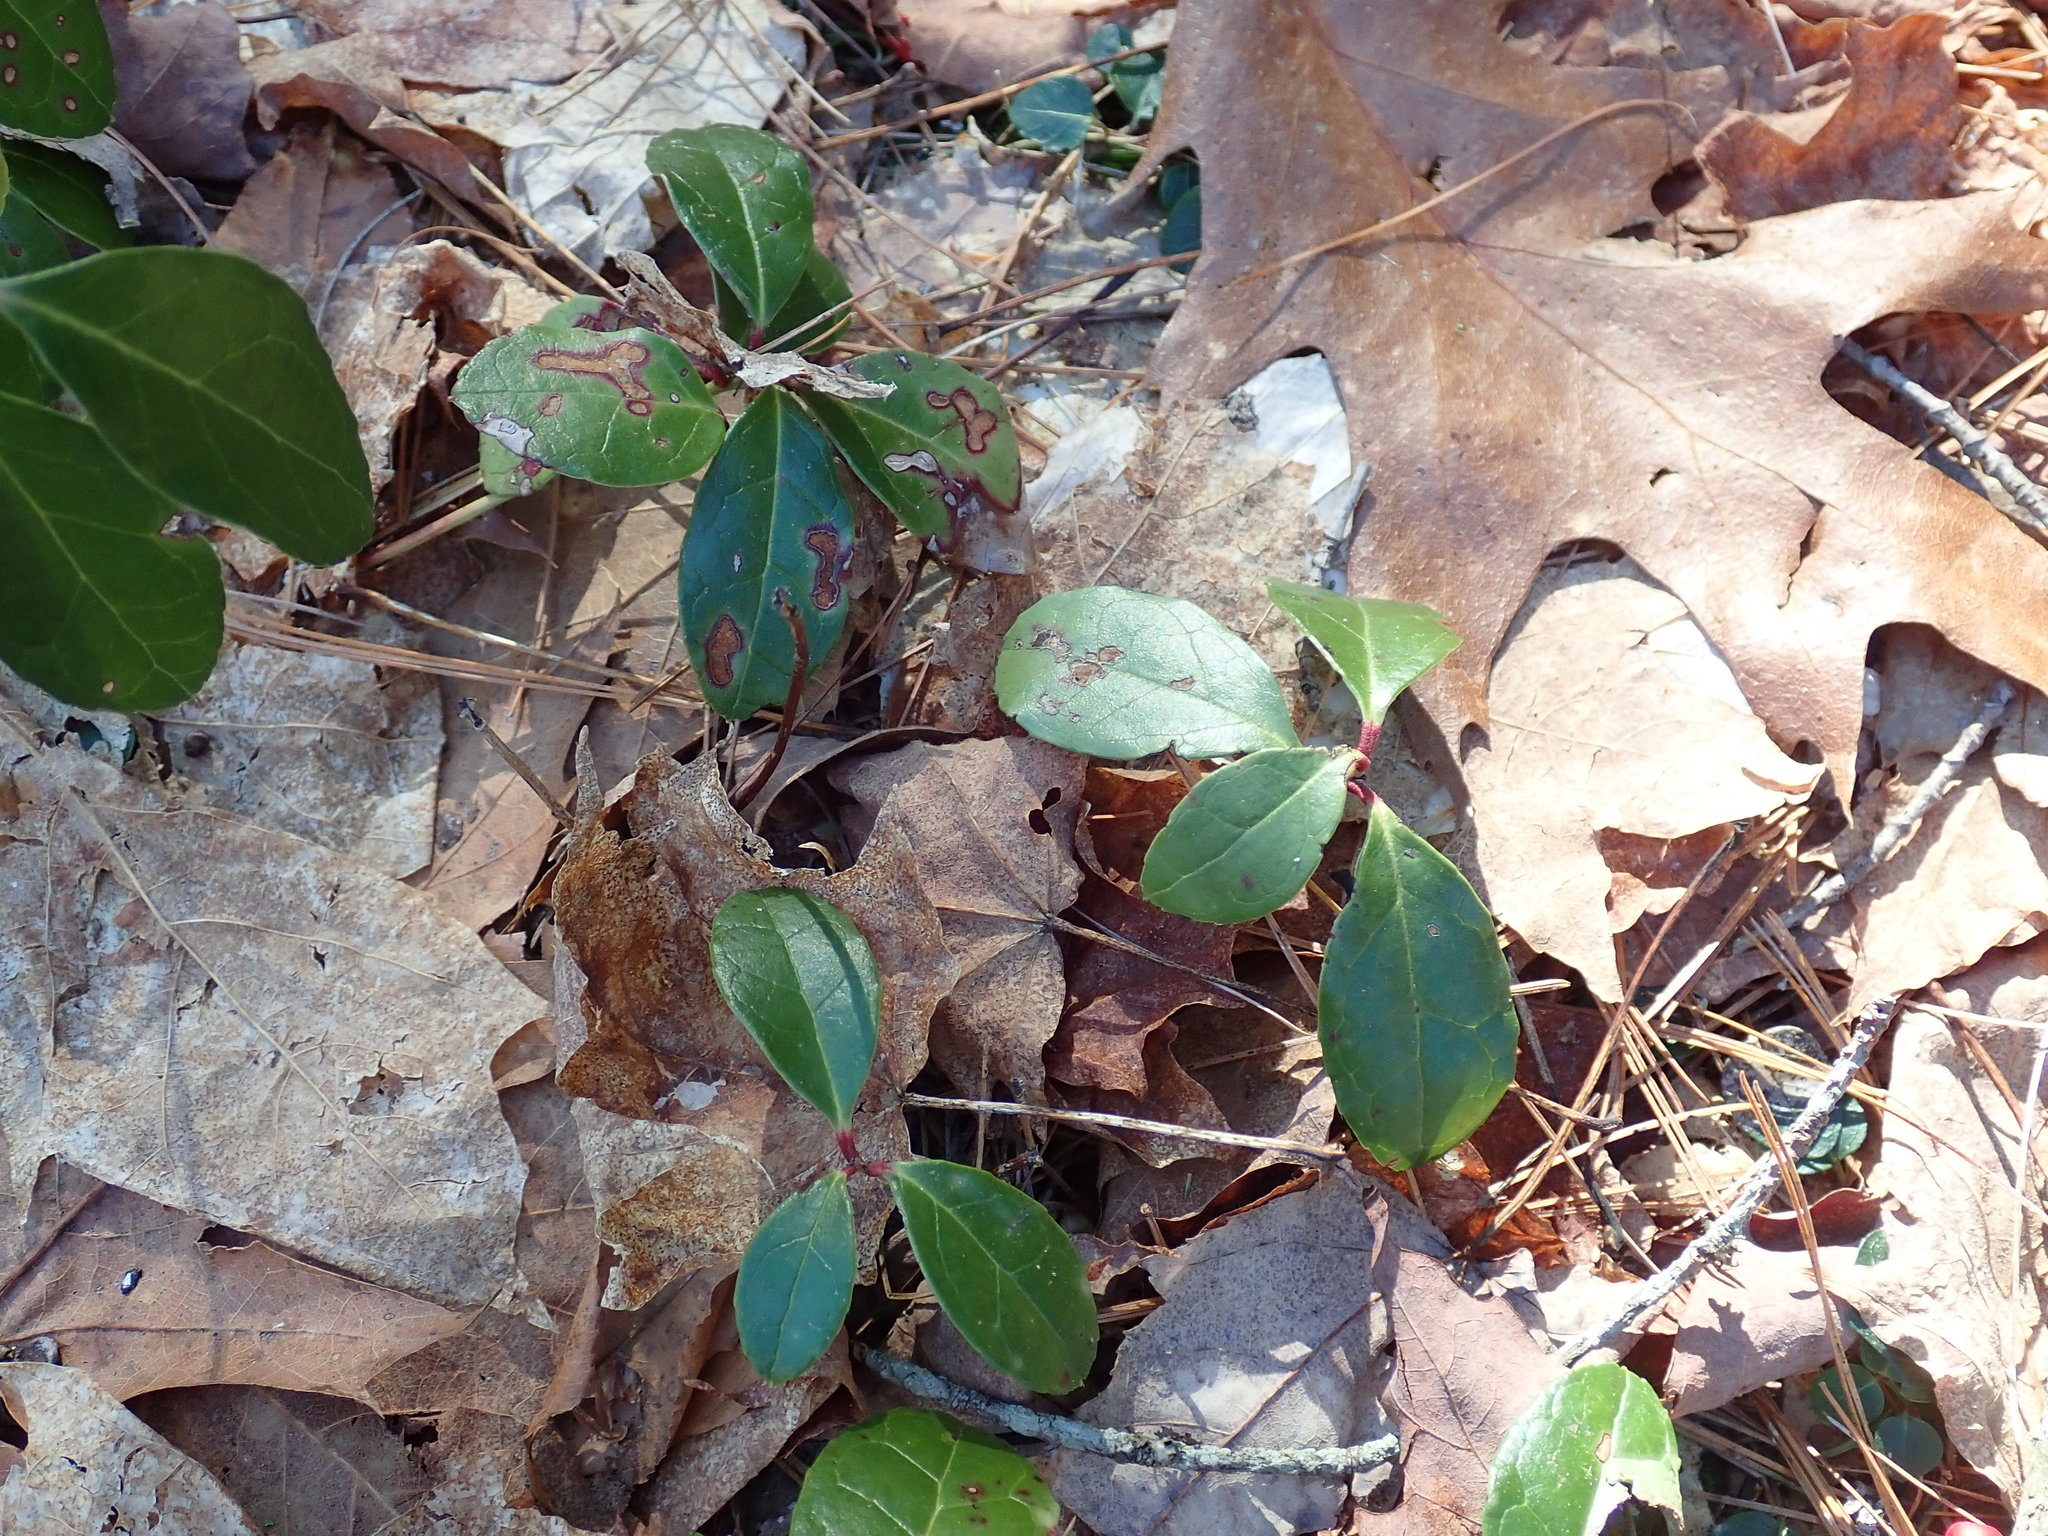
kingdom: Plantae
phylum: Tracheophyta
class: Magnoliopsida
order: Ericales
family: Ericaceae
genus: Gaultheria
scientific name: Gaultheria procumbens
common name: Checkerberry
